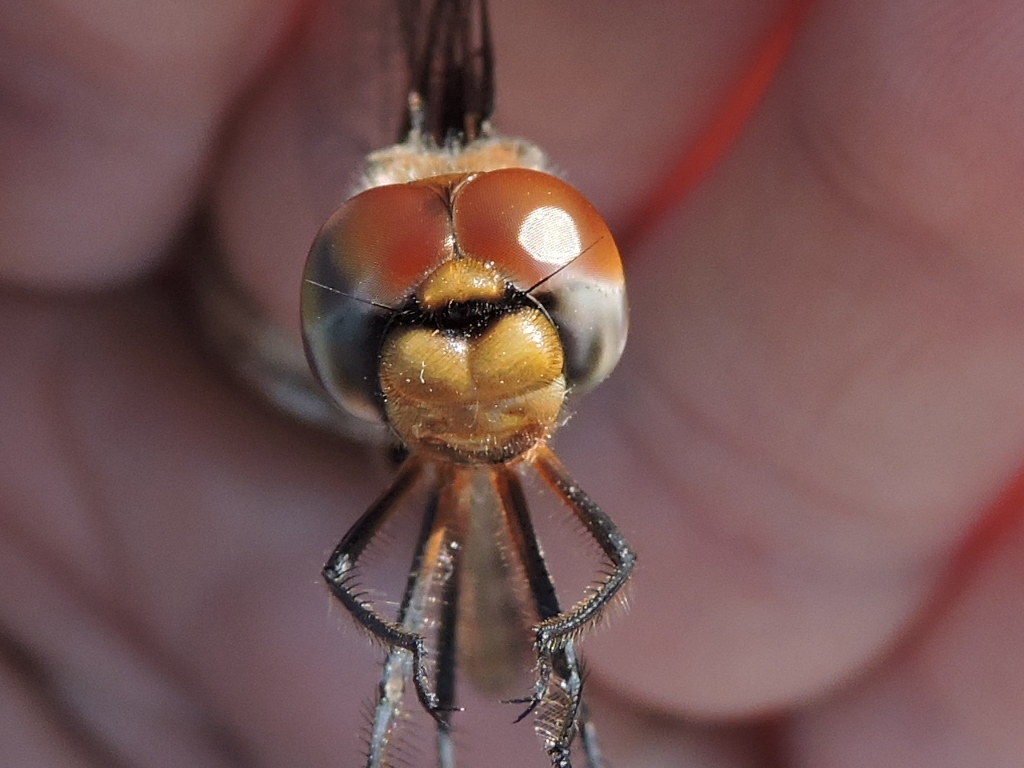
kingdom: Animalia
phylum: Arthropoda
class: Insecta
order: Odonata
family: Libellulidae
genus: Tramea
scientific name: Tramea onusta
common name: Red saddlebags
